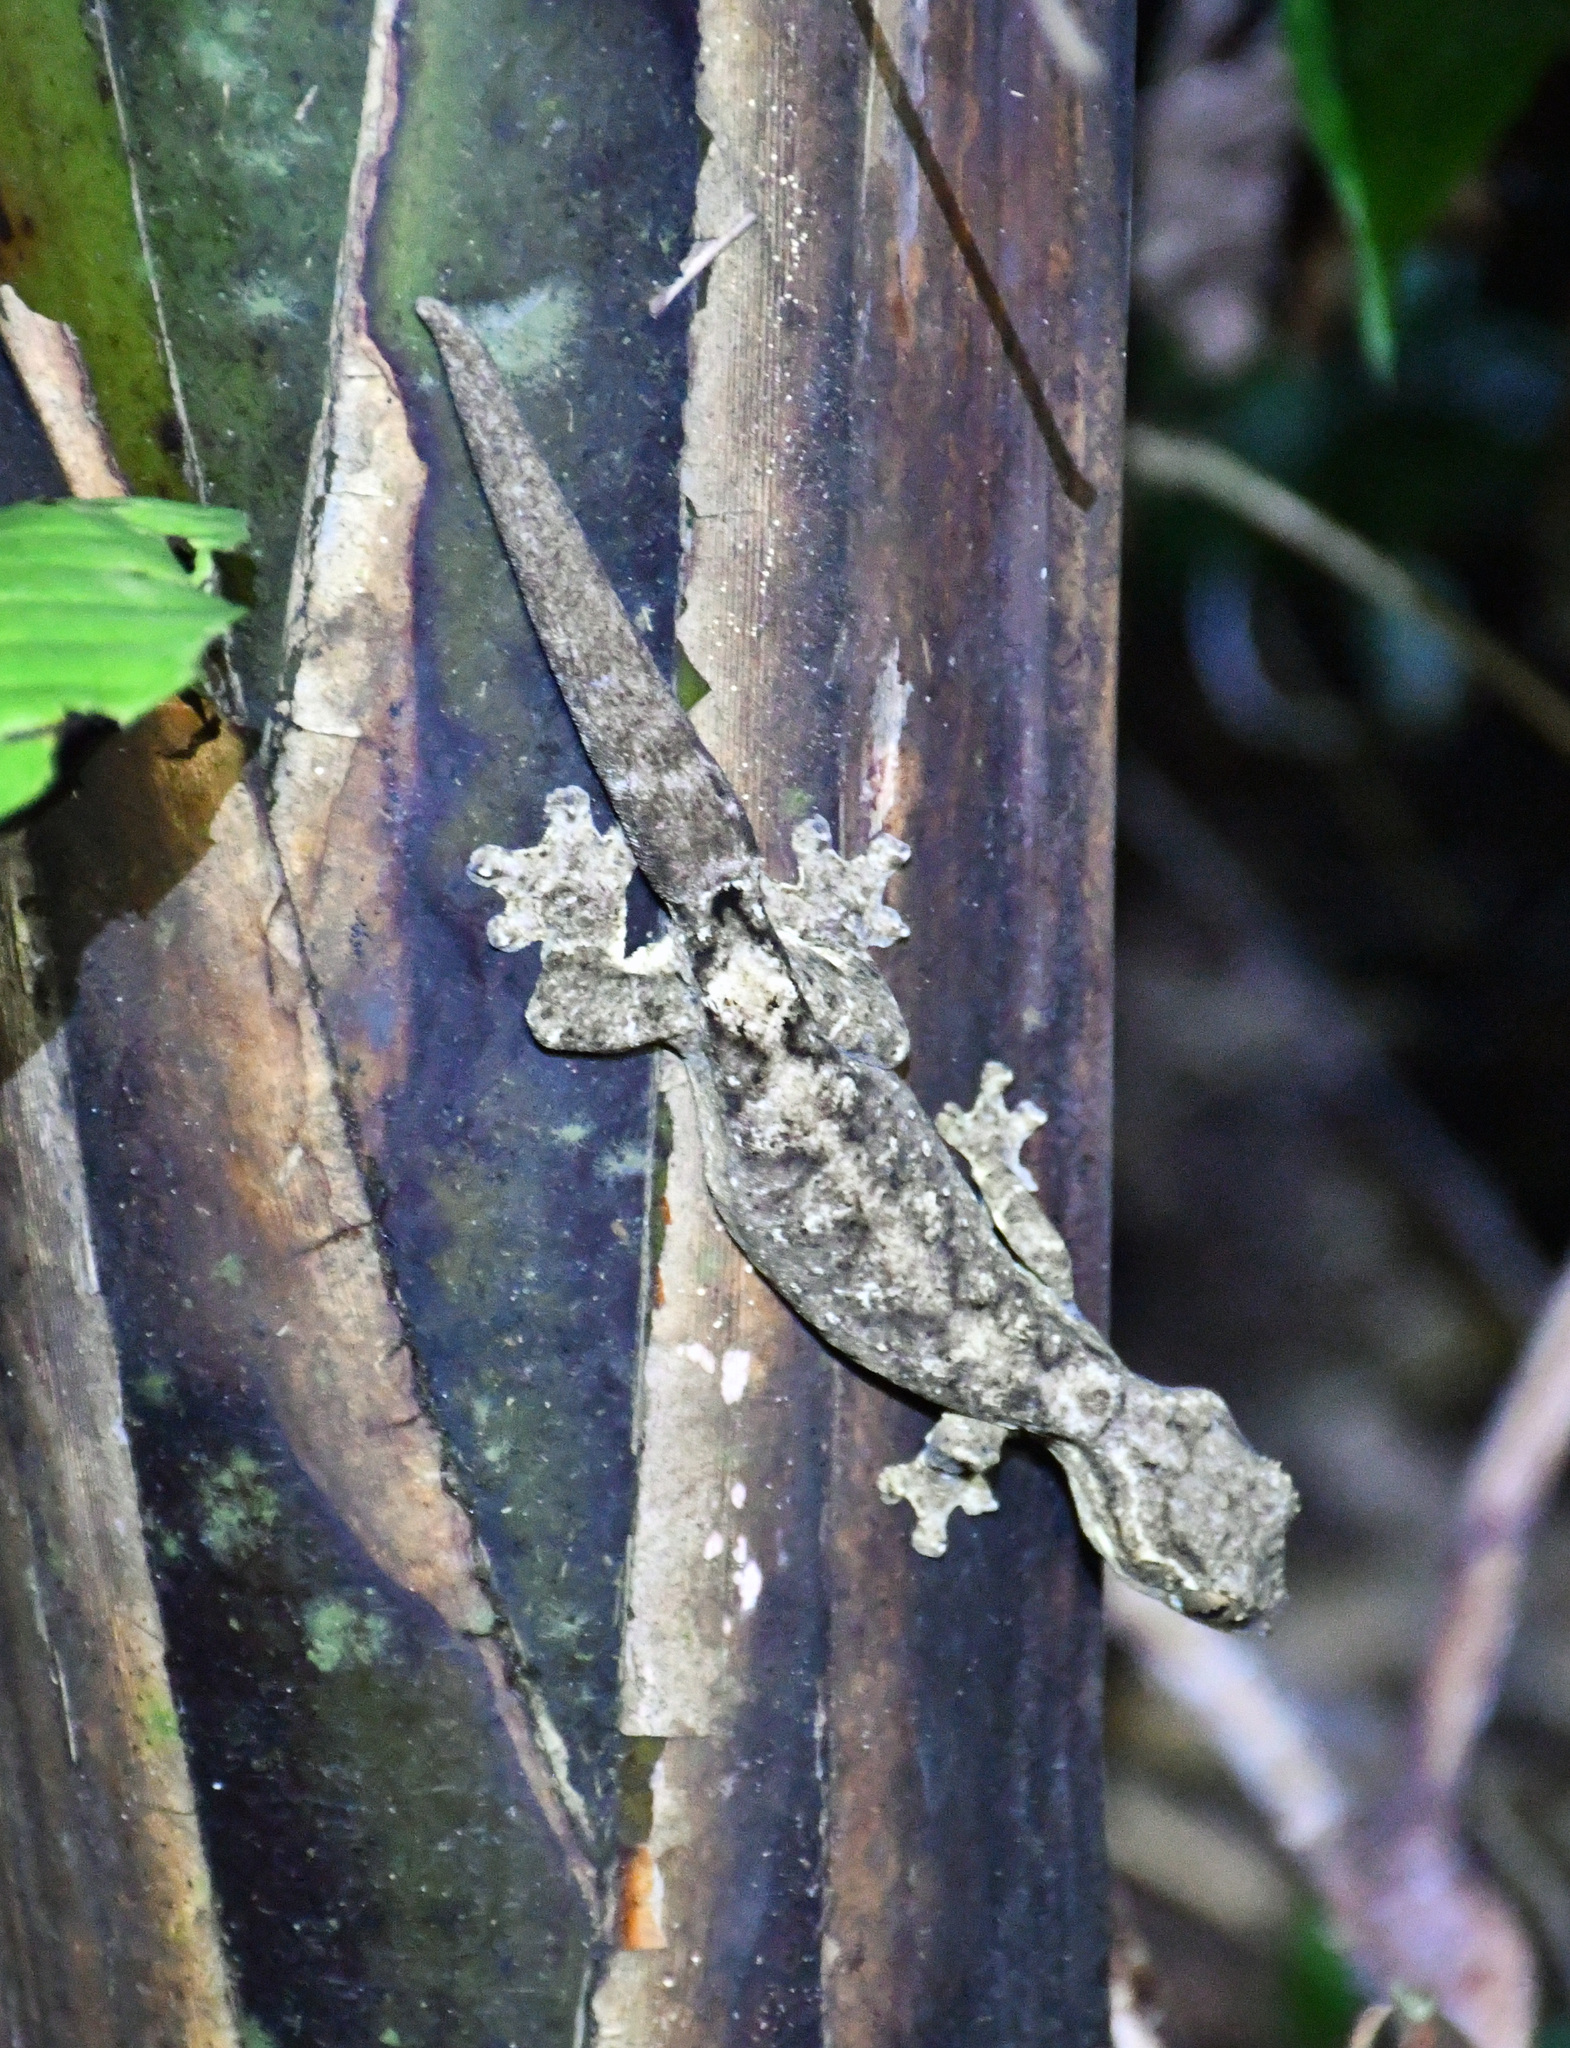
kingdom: Animalia
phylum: Chordata
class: Squamata
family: Phyllodactylidae
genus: Thecadactylus
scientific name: Thecadactylus solimoensis
